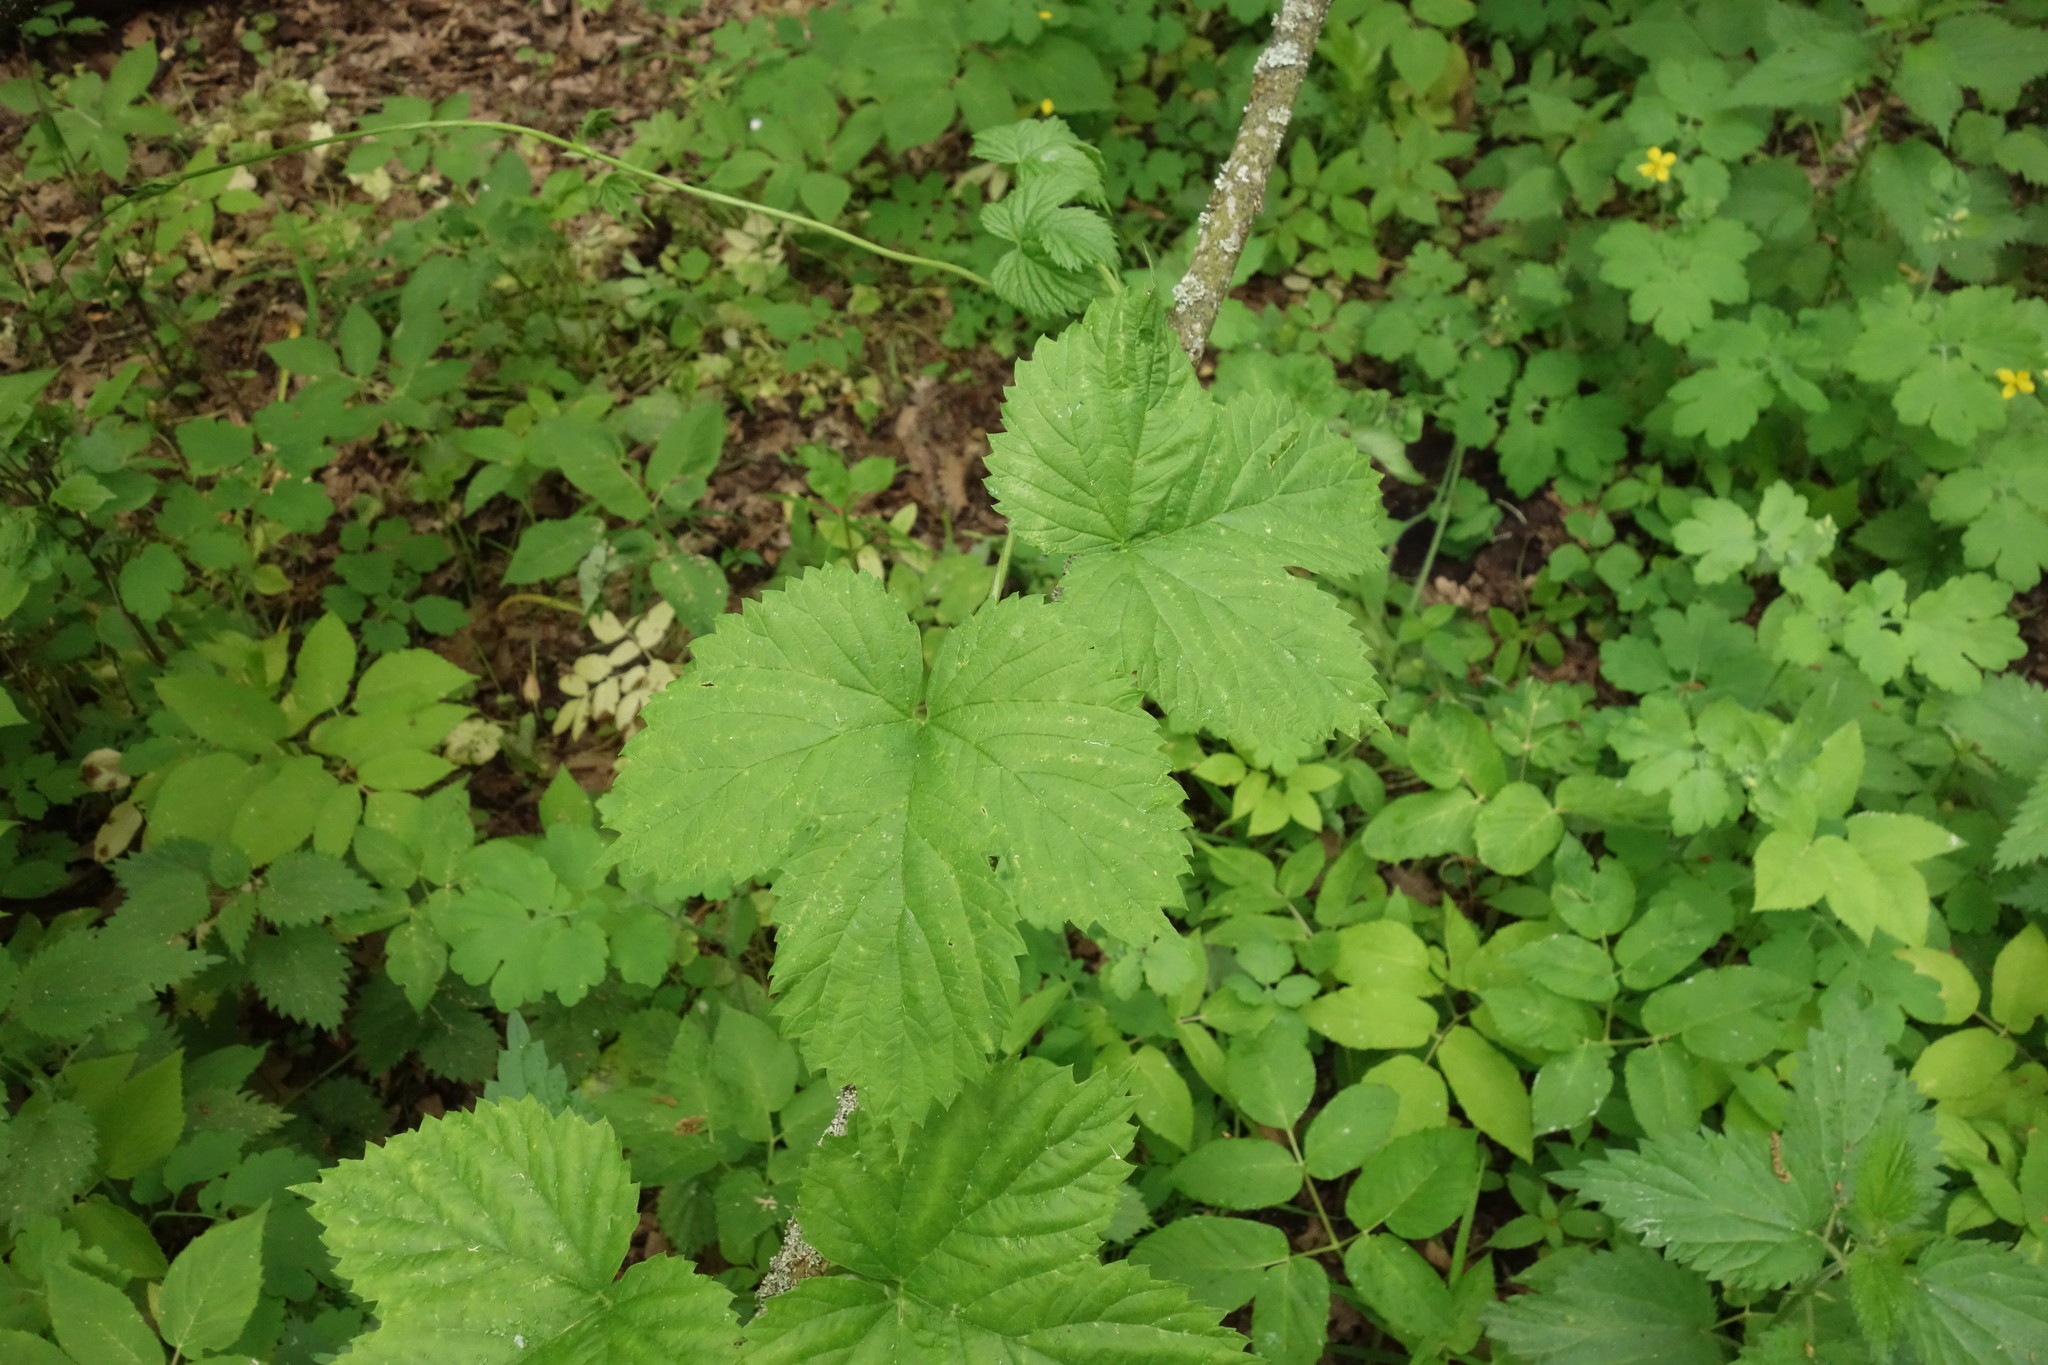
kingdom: Plantae
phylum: Tracheophyta
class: Magnoliopsida
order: Rosales
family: Cannabaceae
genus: Humulus
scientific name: Humulus lupulus
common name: Hop
